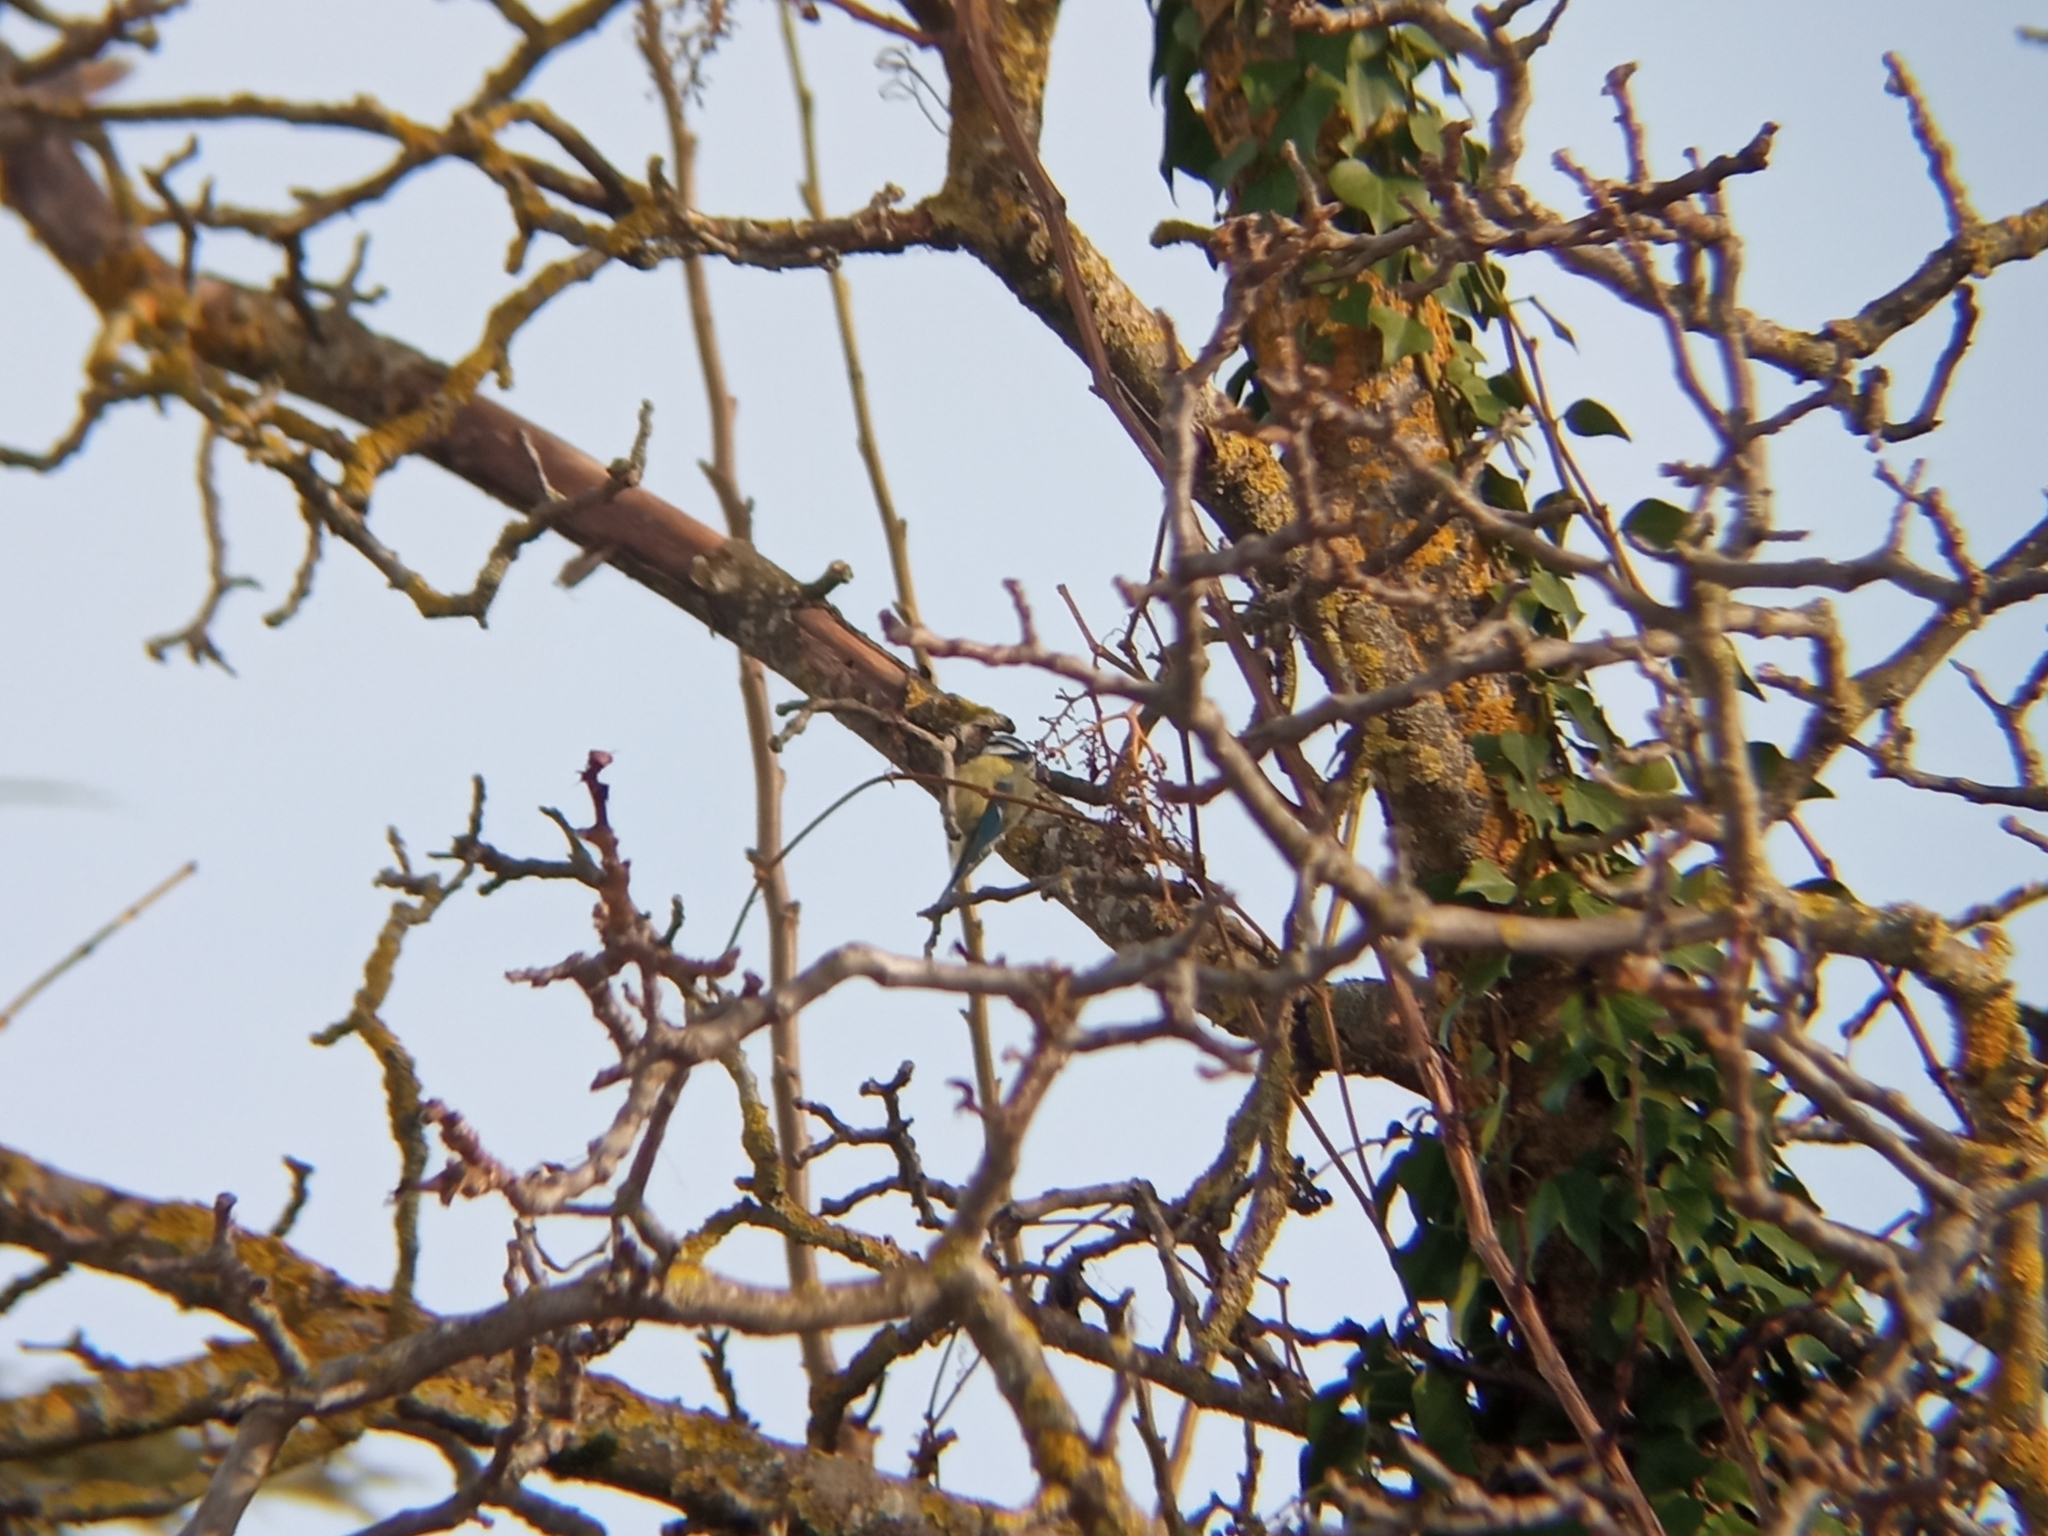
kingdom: Animalia
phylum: Chordata
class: Aves
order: Passeriformes
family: Paridae
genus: Cyanistes
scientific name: Cyanistes caeruleus
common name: Eurasian blue tit
